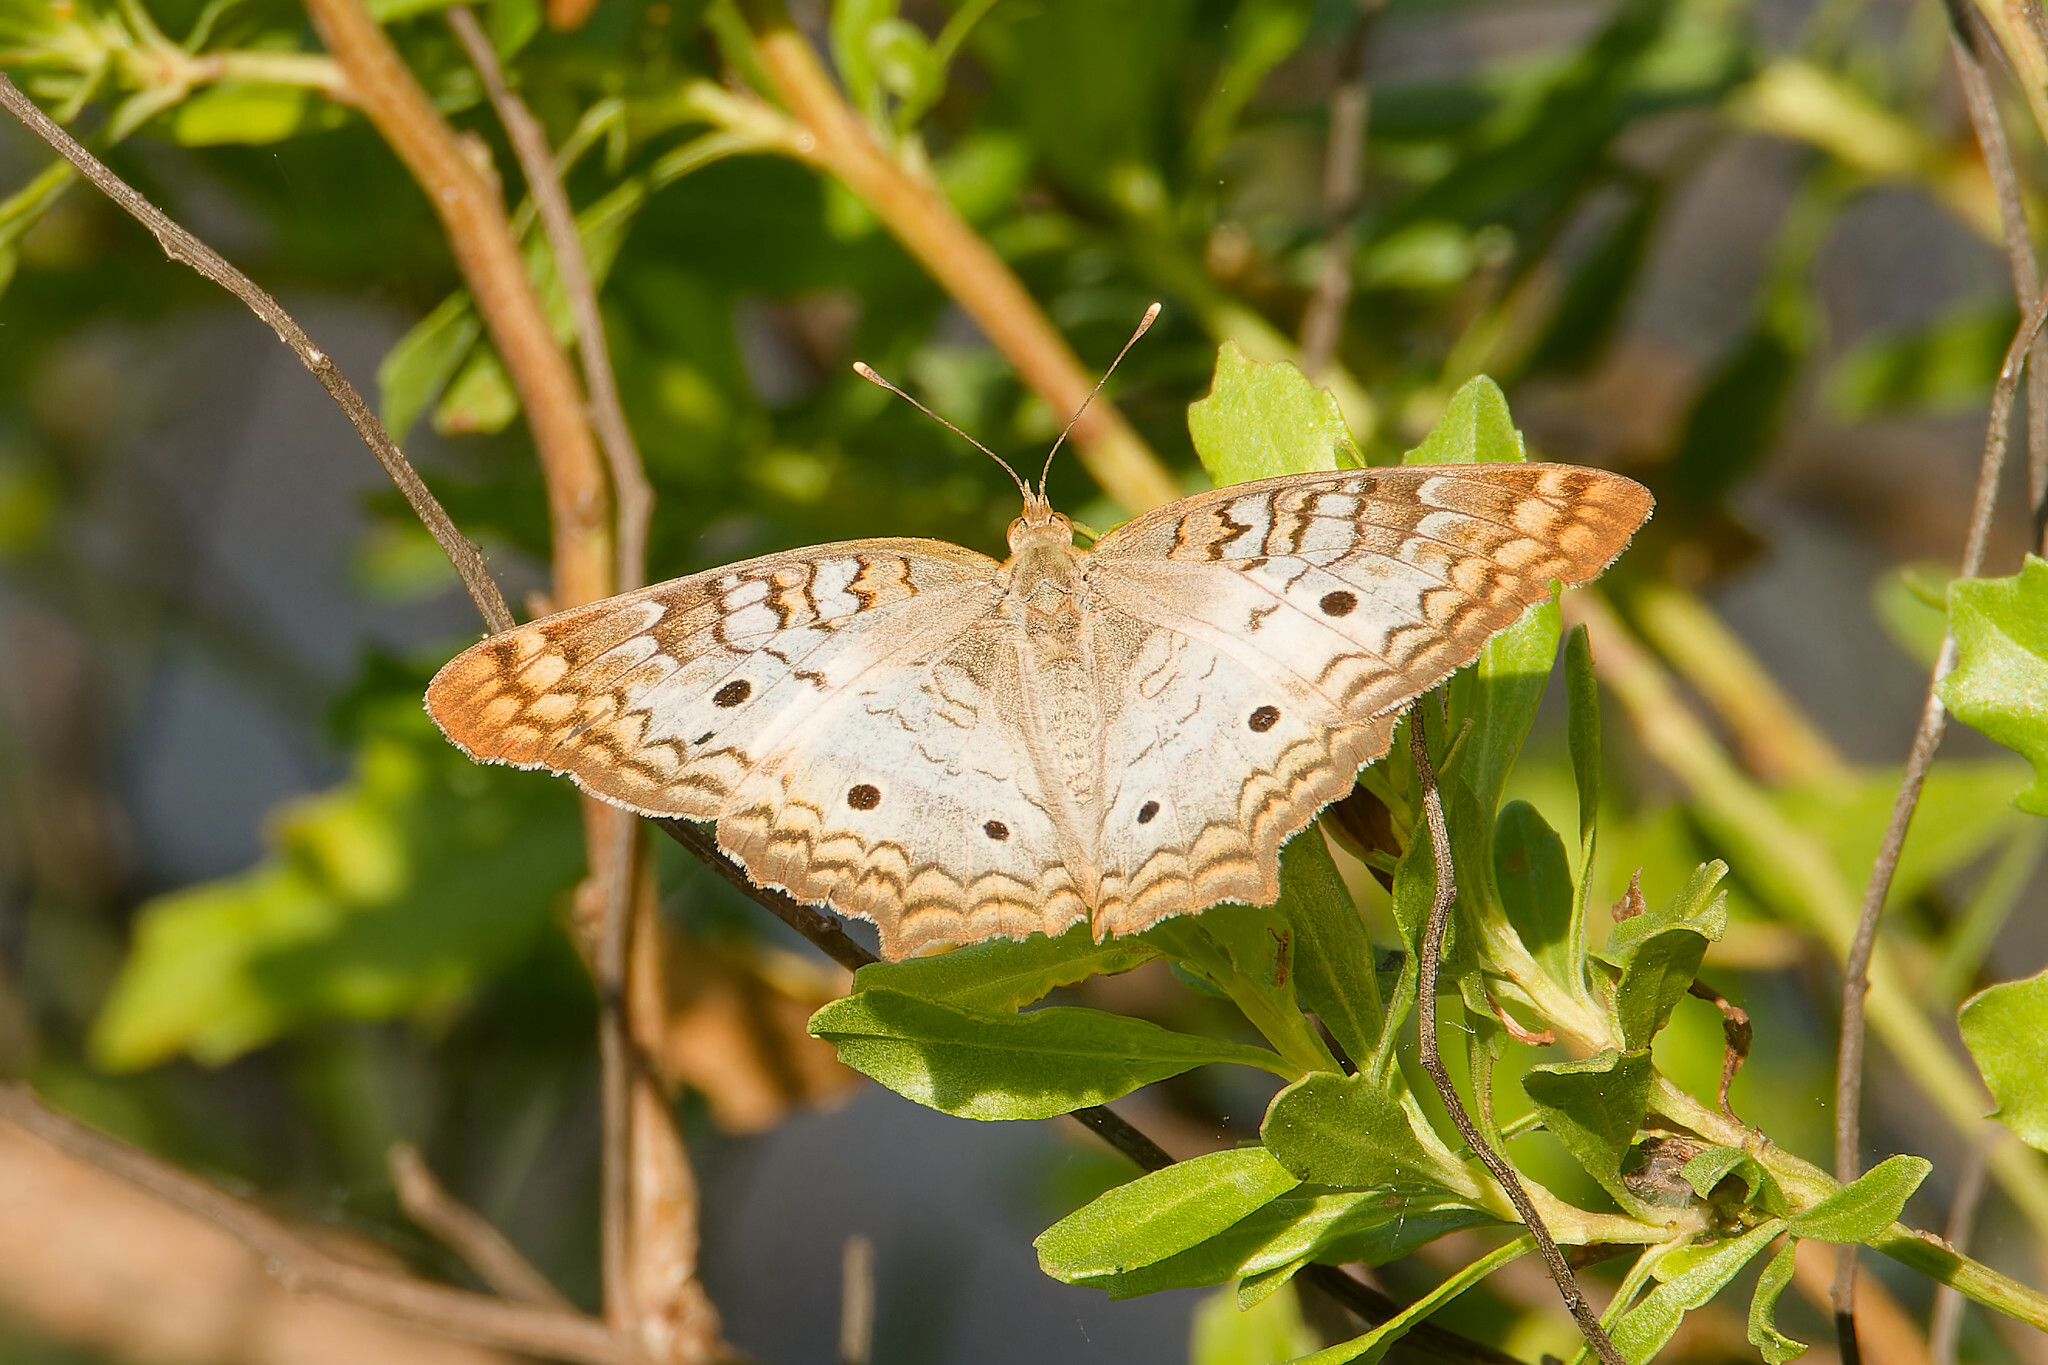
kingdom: Animalia
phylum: Arthropoda
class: Insecta
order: Lepidoptera
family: Nymphalidae
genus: Anartia
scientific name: Anartia jatrophae
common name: White peacock
